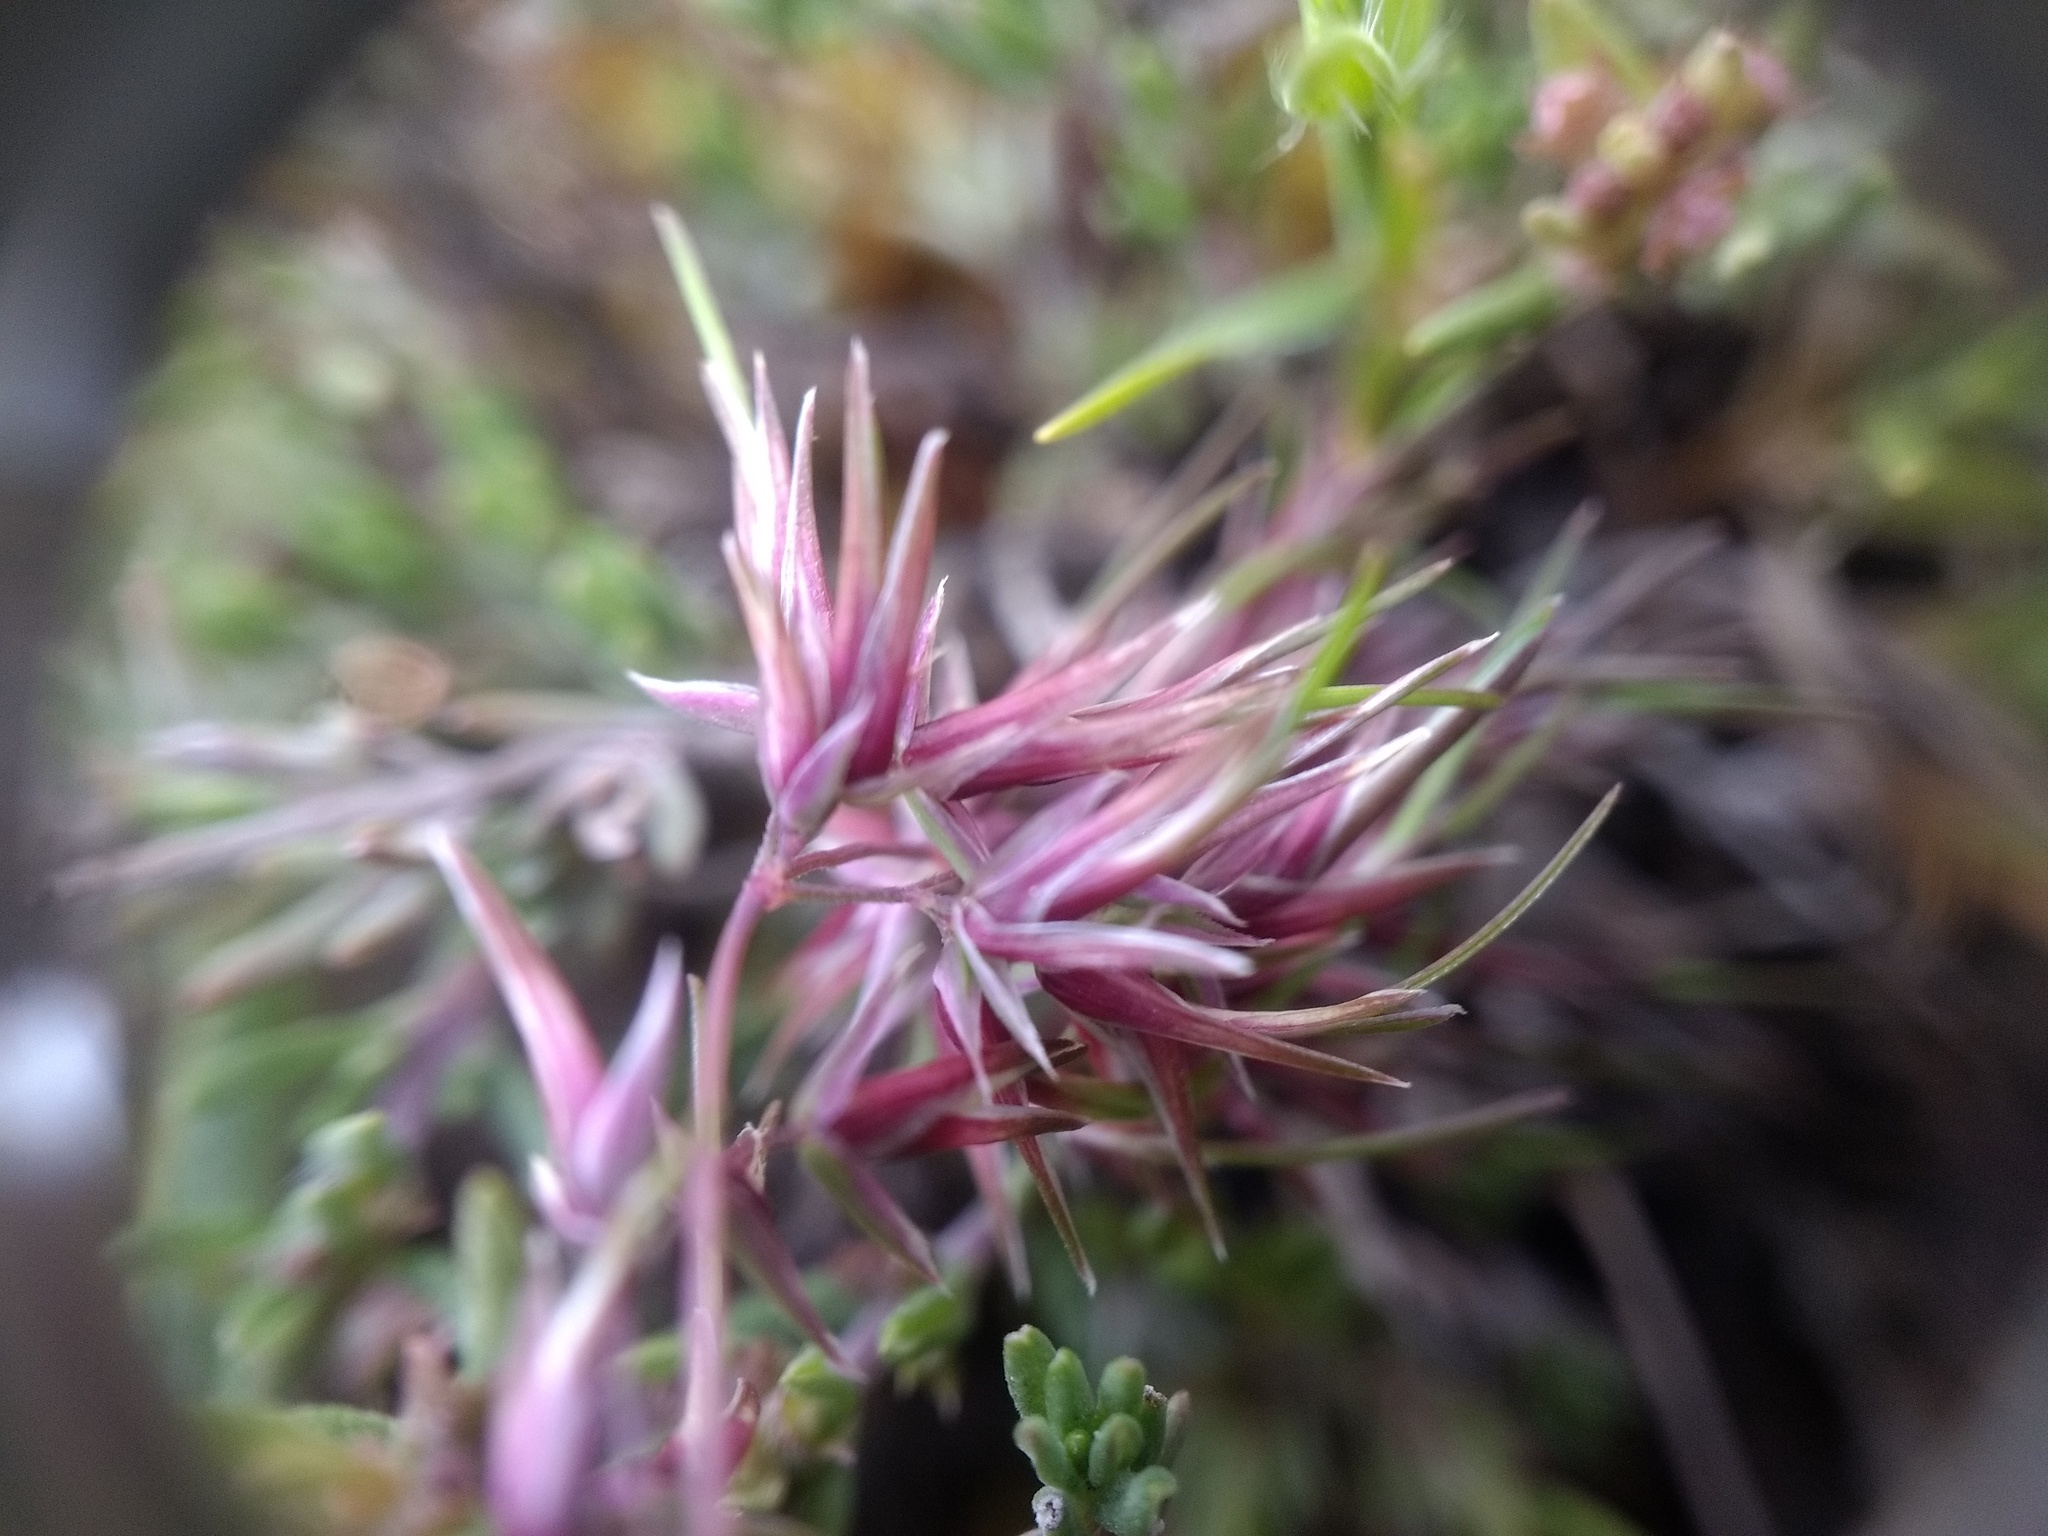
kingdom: Plantae
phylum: Tracheophyta
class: Liliopsida
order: Poales
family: Poaceae
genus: Poa
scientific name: Poa bulbosa
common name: Bulbous bluegrass
